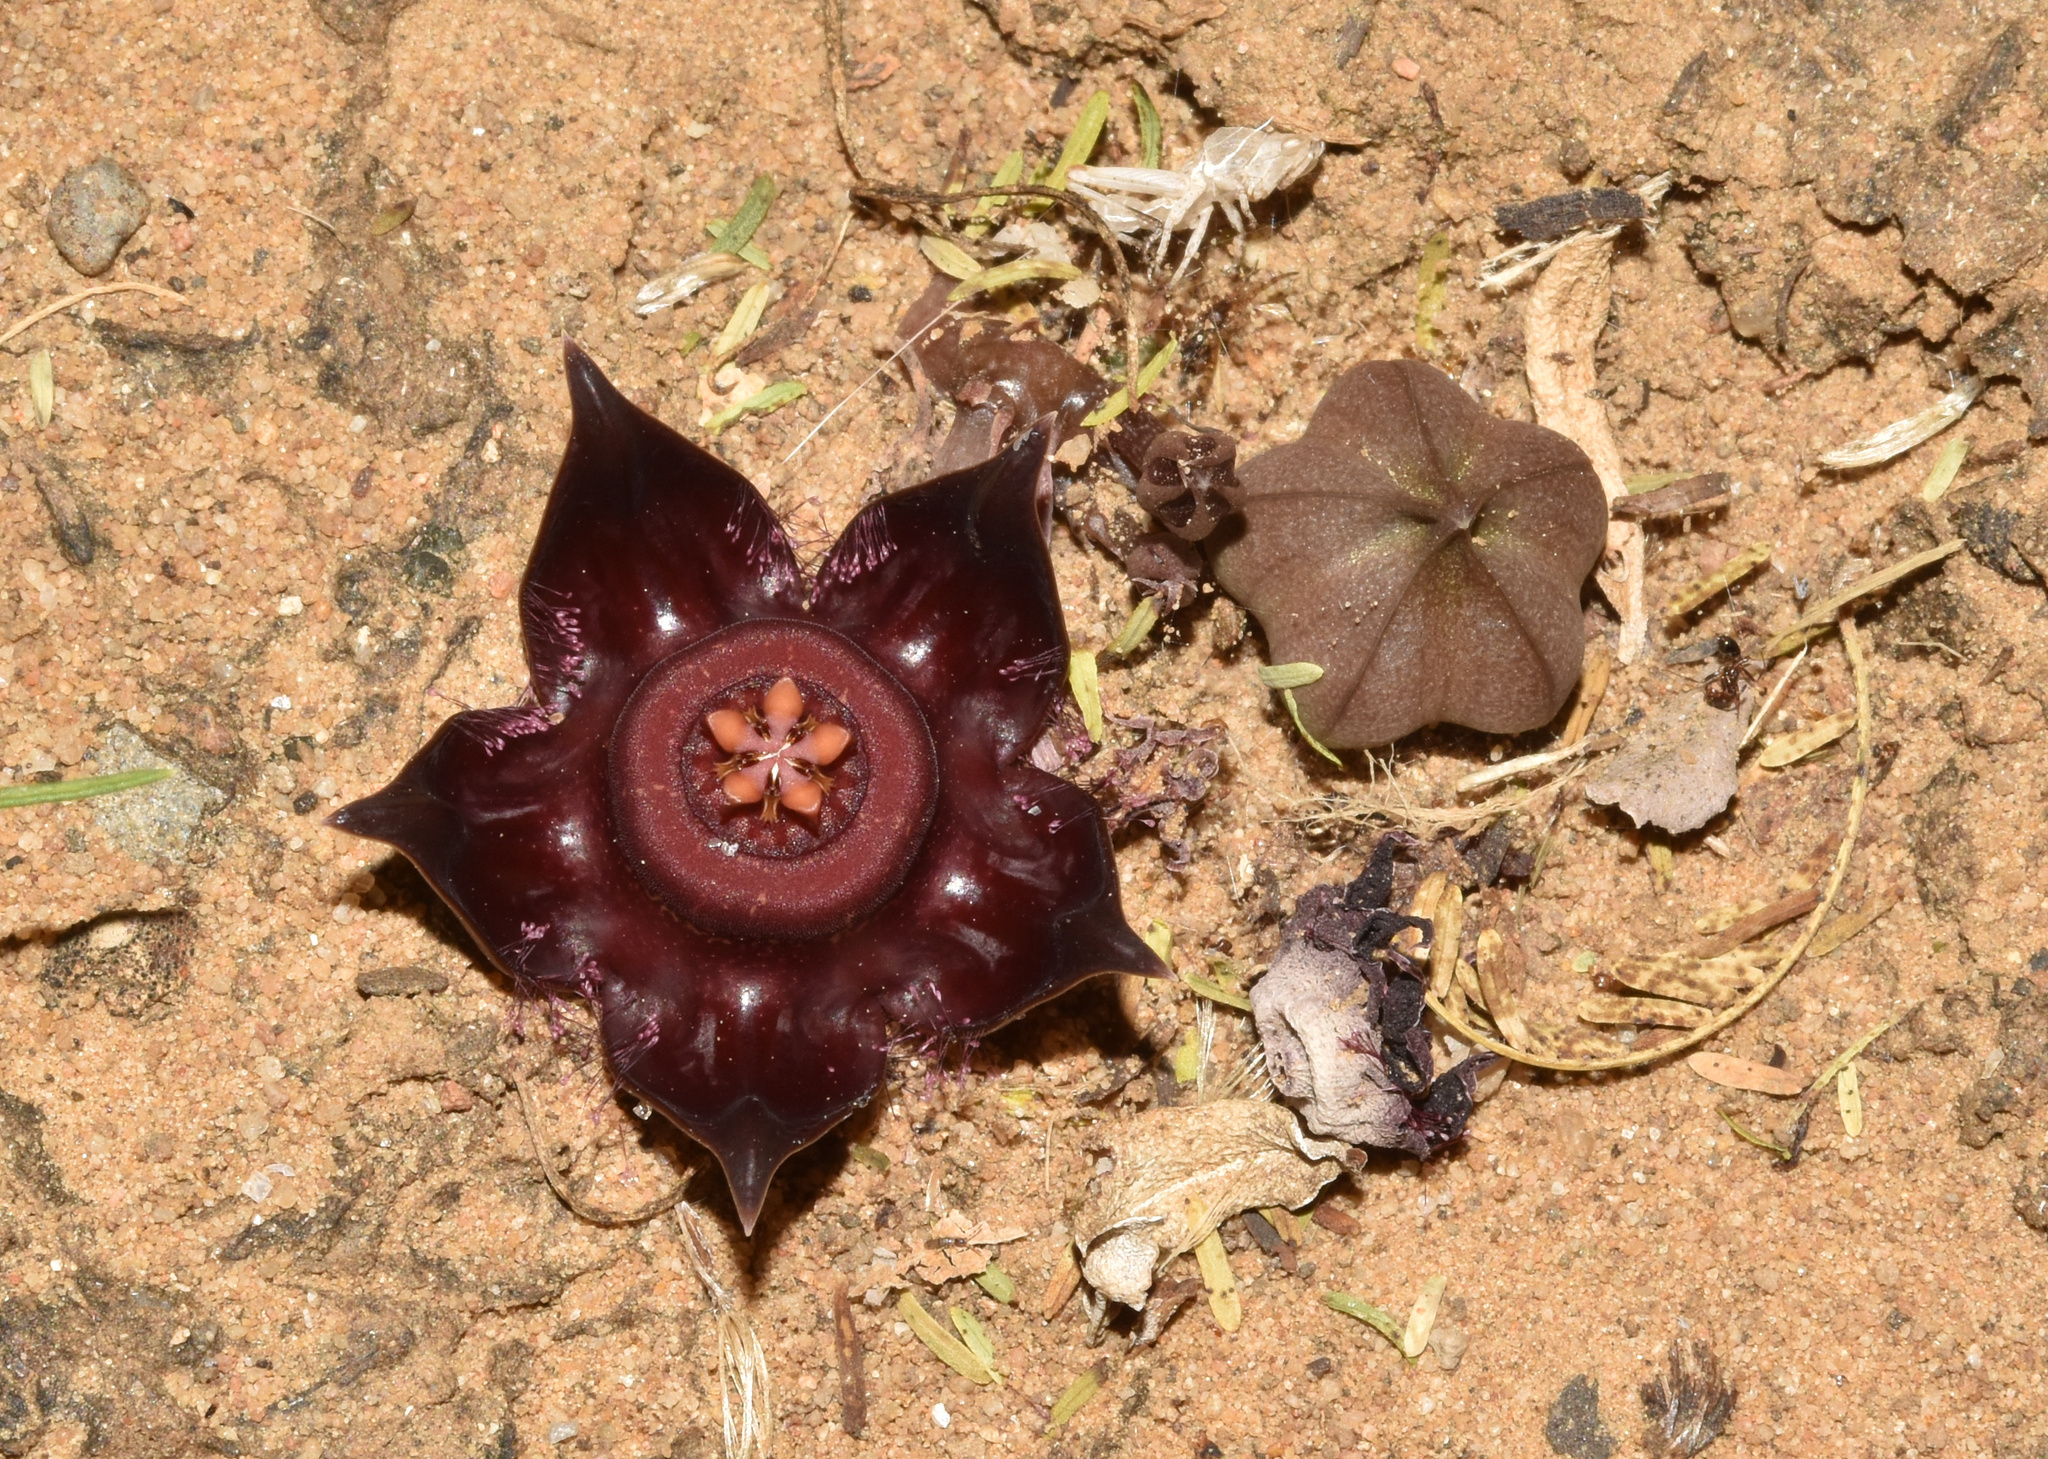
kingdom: Plantae
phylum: Tracheophyta
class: Magnoliopsida
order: Gentianales
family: Apocynaceae
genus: Ceropegia
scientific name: Ceropegia polita
